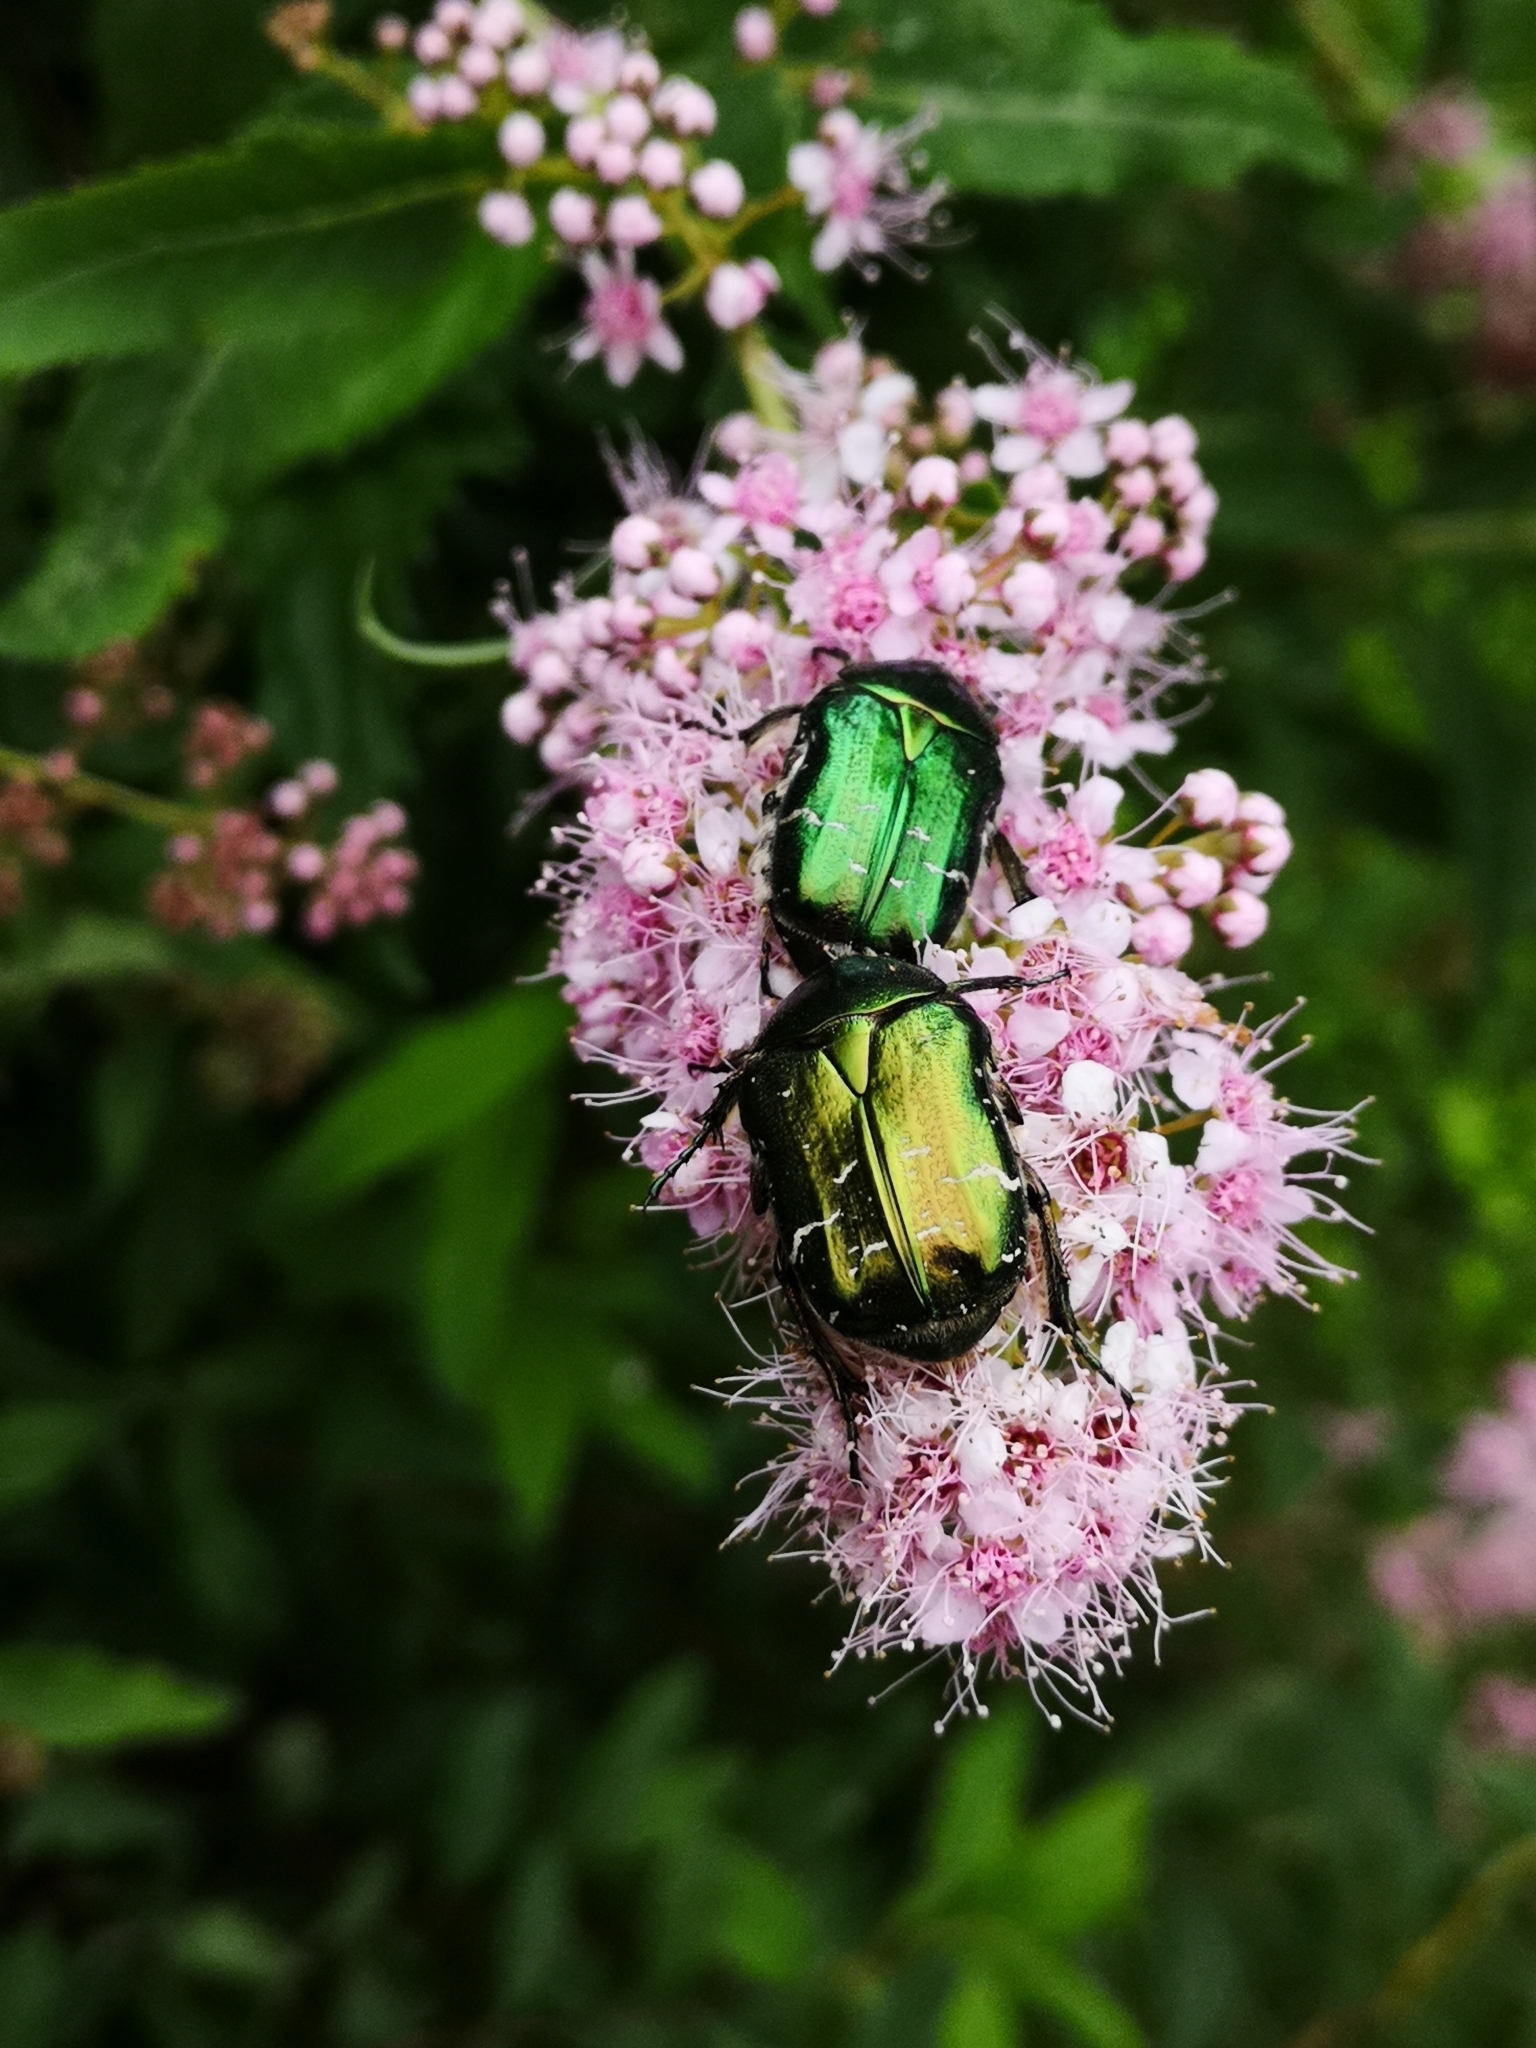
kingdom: Animalia
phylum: Arthropoda
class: Insecta
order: Coleoptera
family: Scarabaeidae
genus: Cetonia
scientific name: Cetonia aurata
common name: Rose chafer
